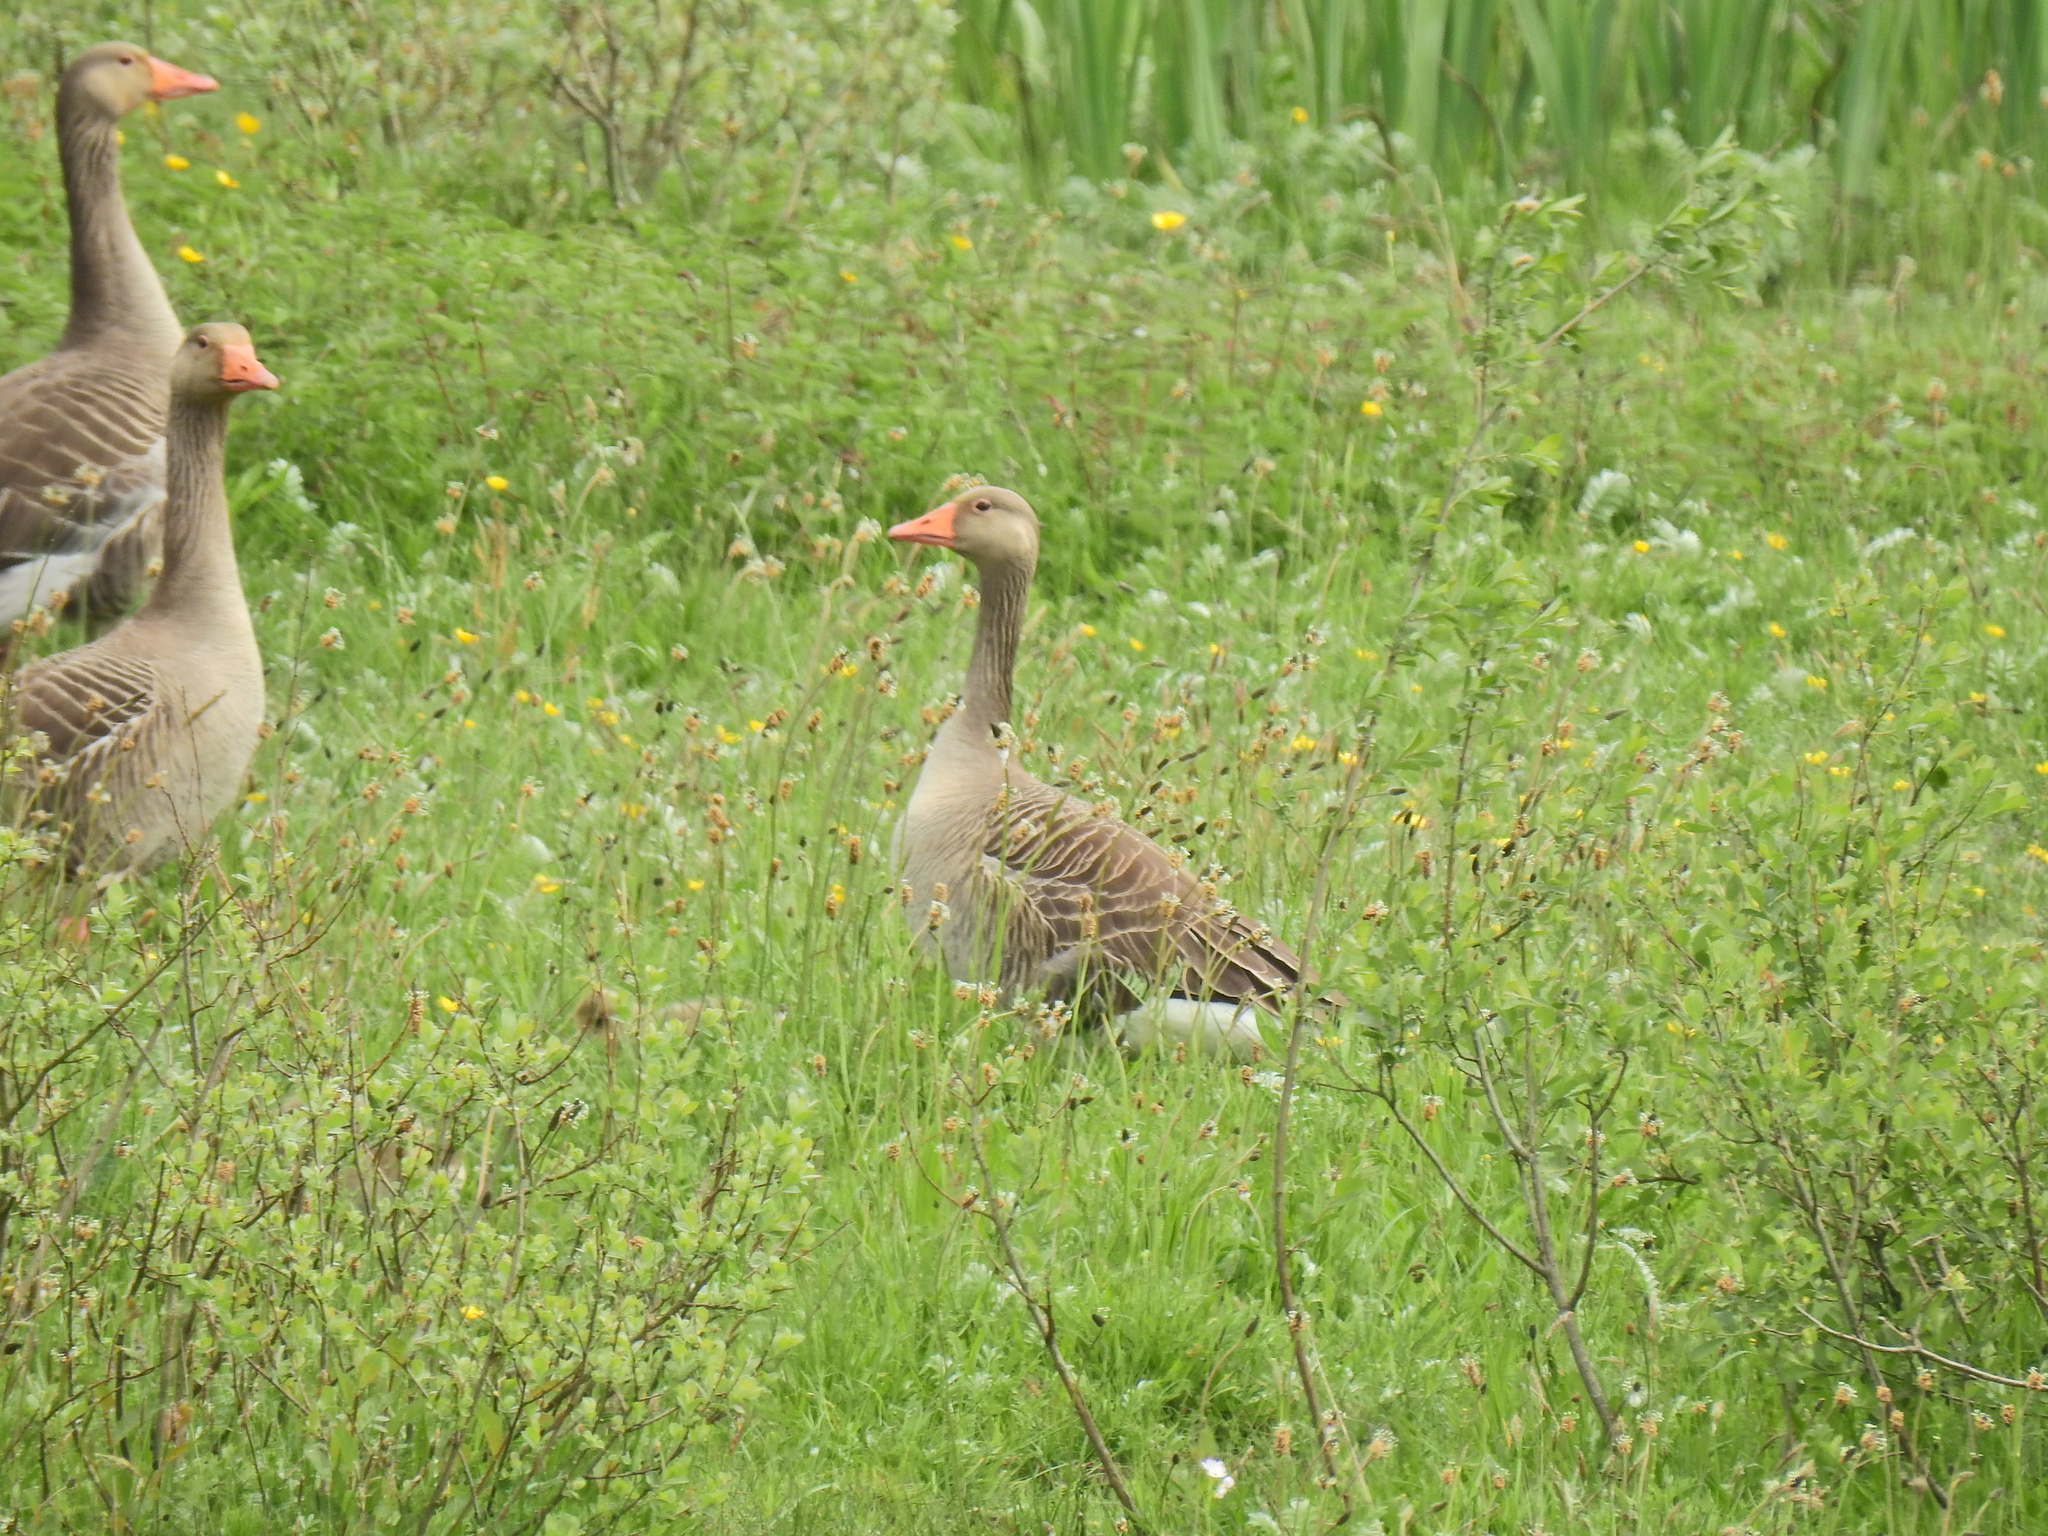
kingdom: Animalia
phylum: Chordata
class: Aves
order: Anseriformes
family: Anatidae
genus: Anser
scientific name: Anser anser
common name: Greylag goose
